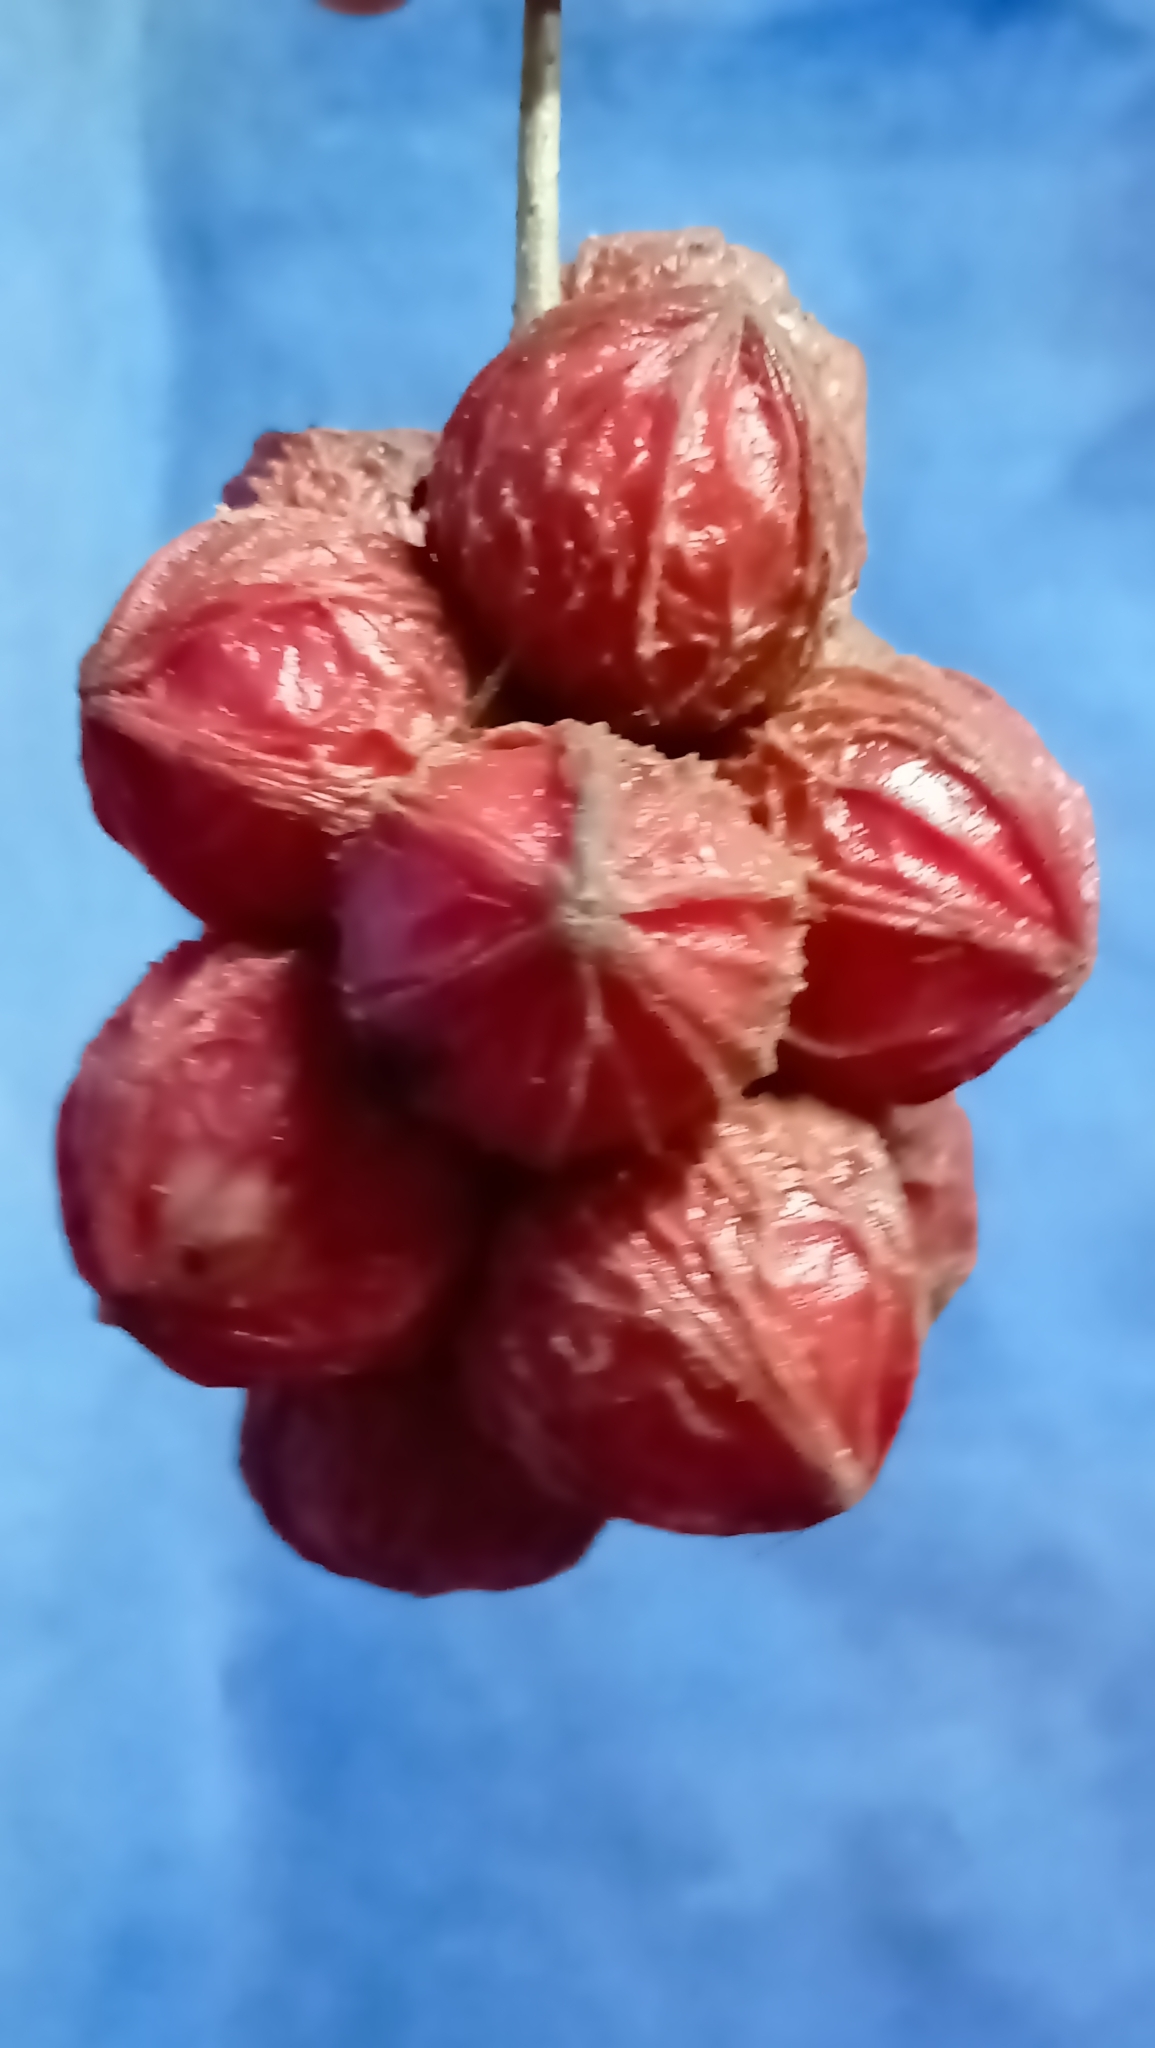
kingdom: Plantae
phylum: Tracheophyta
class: Magnoliopsida
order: Malpighiales
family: Phyllanthaceae
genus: Baccaurea
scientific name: Baccaurea courtallensis
